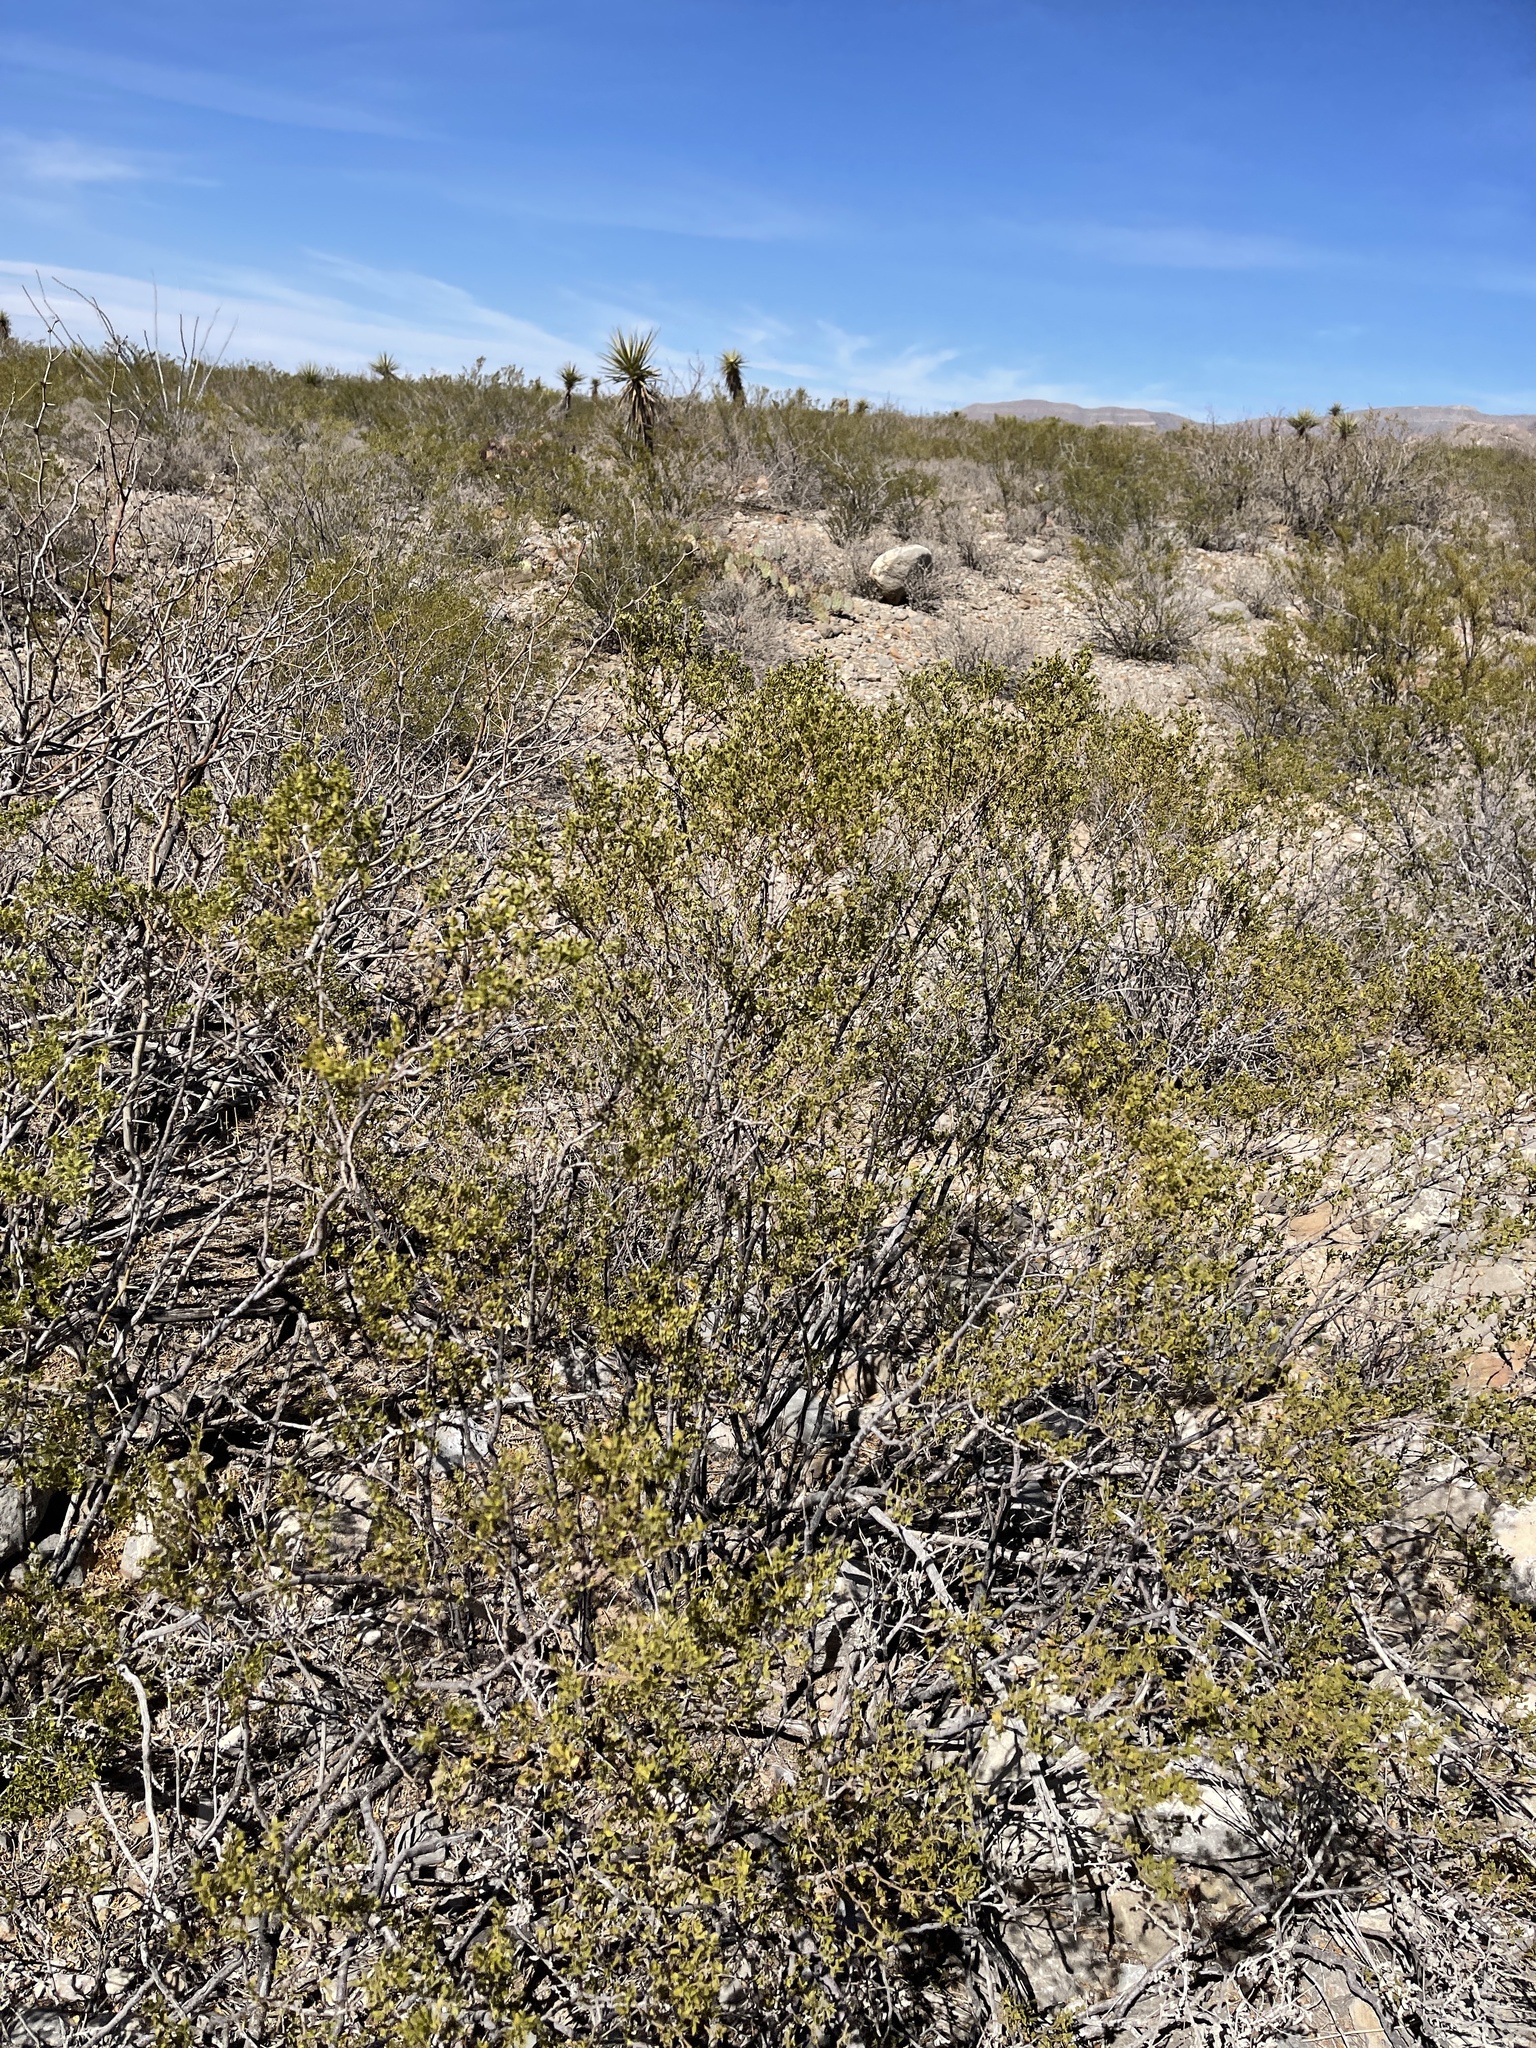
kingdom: Plantae
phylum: Tracheophyta
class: Magnoliopsida
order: Zygophyllales
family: Zygophyllaceae
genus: Larrea
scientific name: Larrea tridentata
